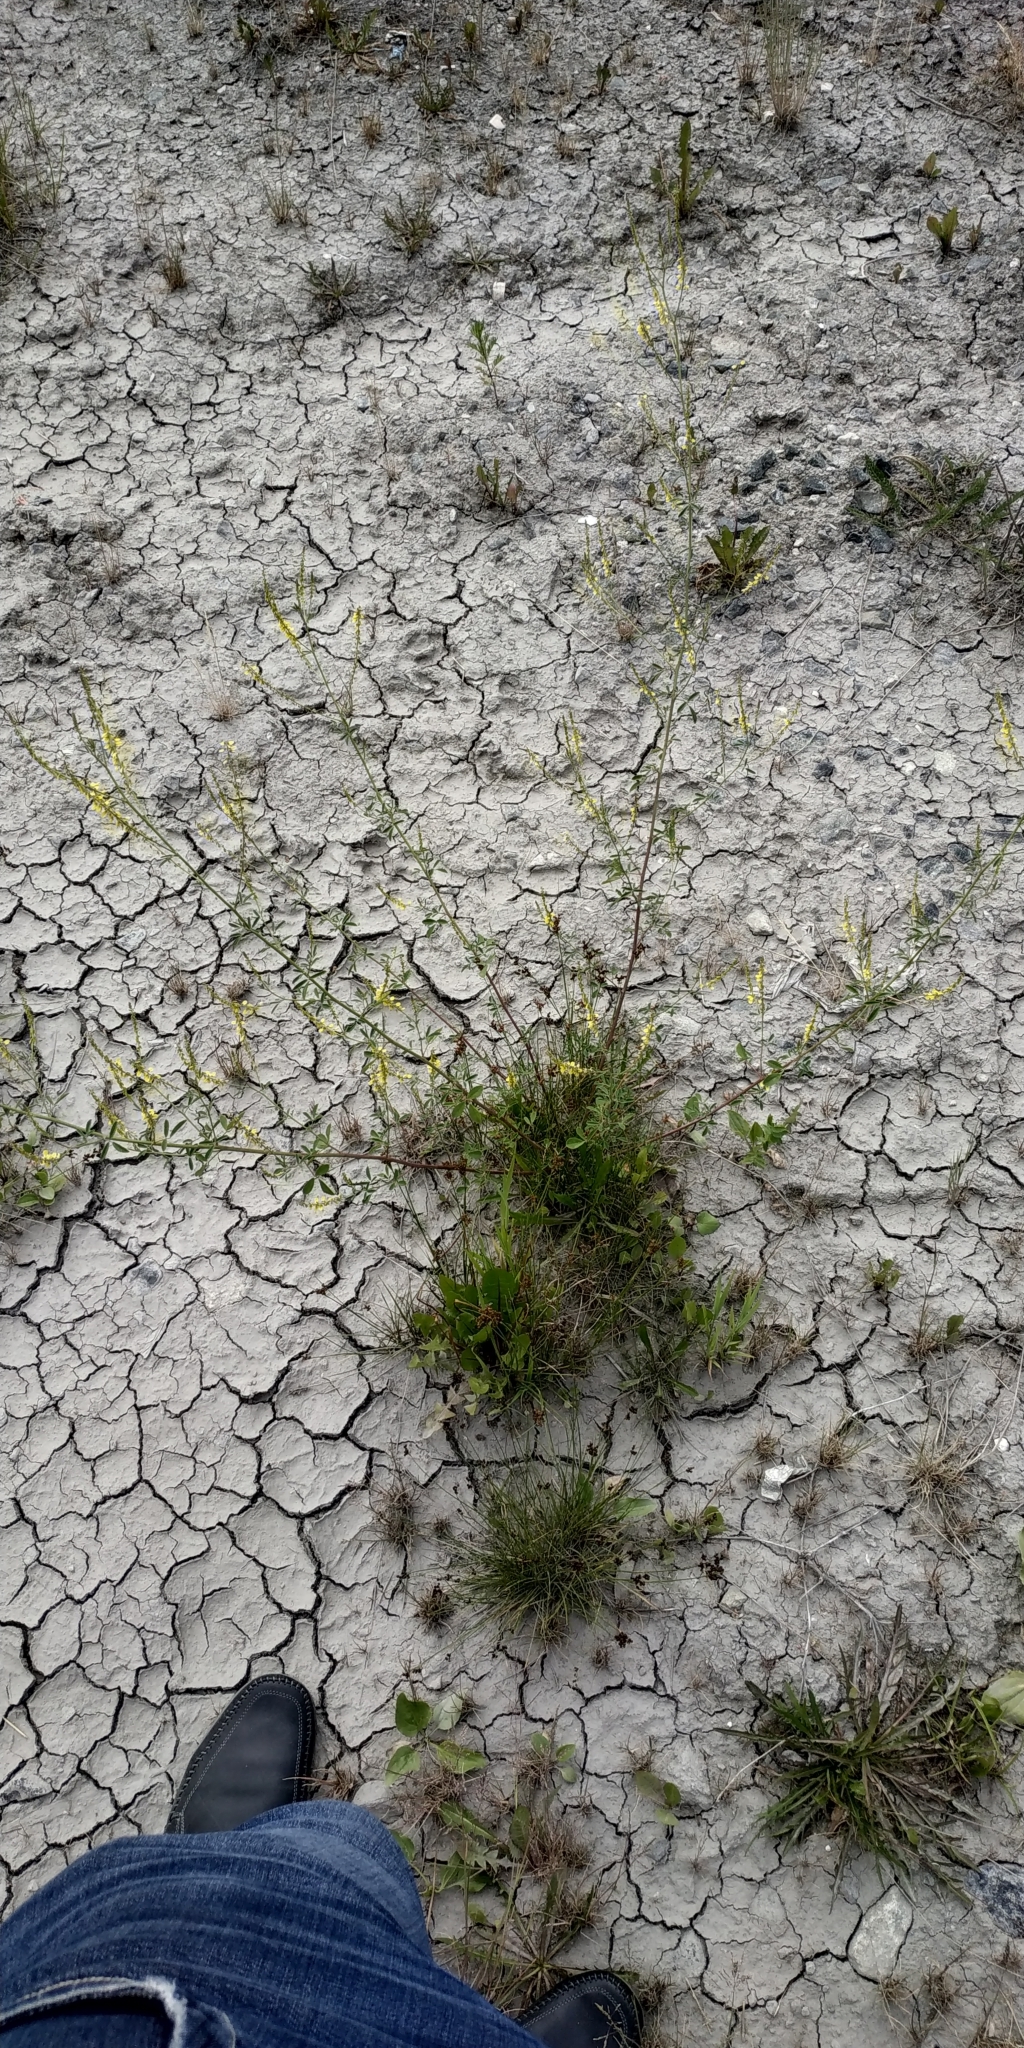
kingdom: Plantae
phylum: Tracheophyta
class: Magnoliopsida
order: Fabales
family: Fabaceae
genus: Melilotus
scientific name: Melilotus officinalis
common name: Sweetclover
